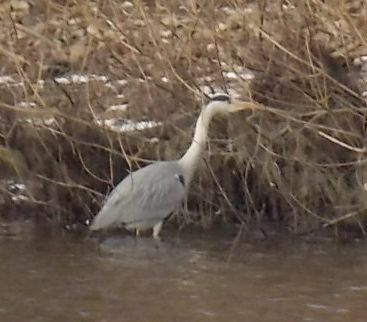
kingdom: Animalia
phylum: Chordata
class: Aves
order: Pelecaniformes
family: Ardeidae
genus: Ardea
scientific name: Ardea cinerea
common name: Grey heron
